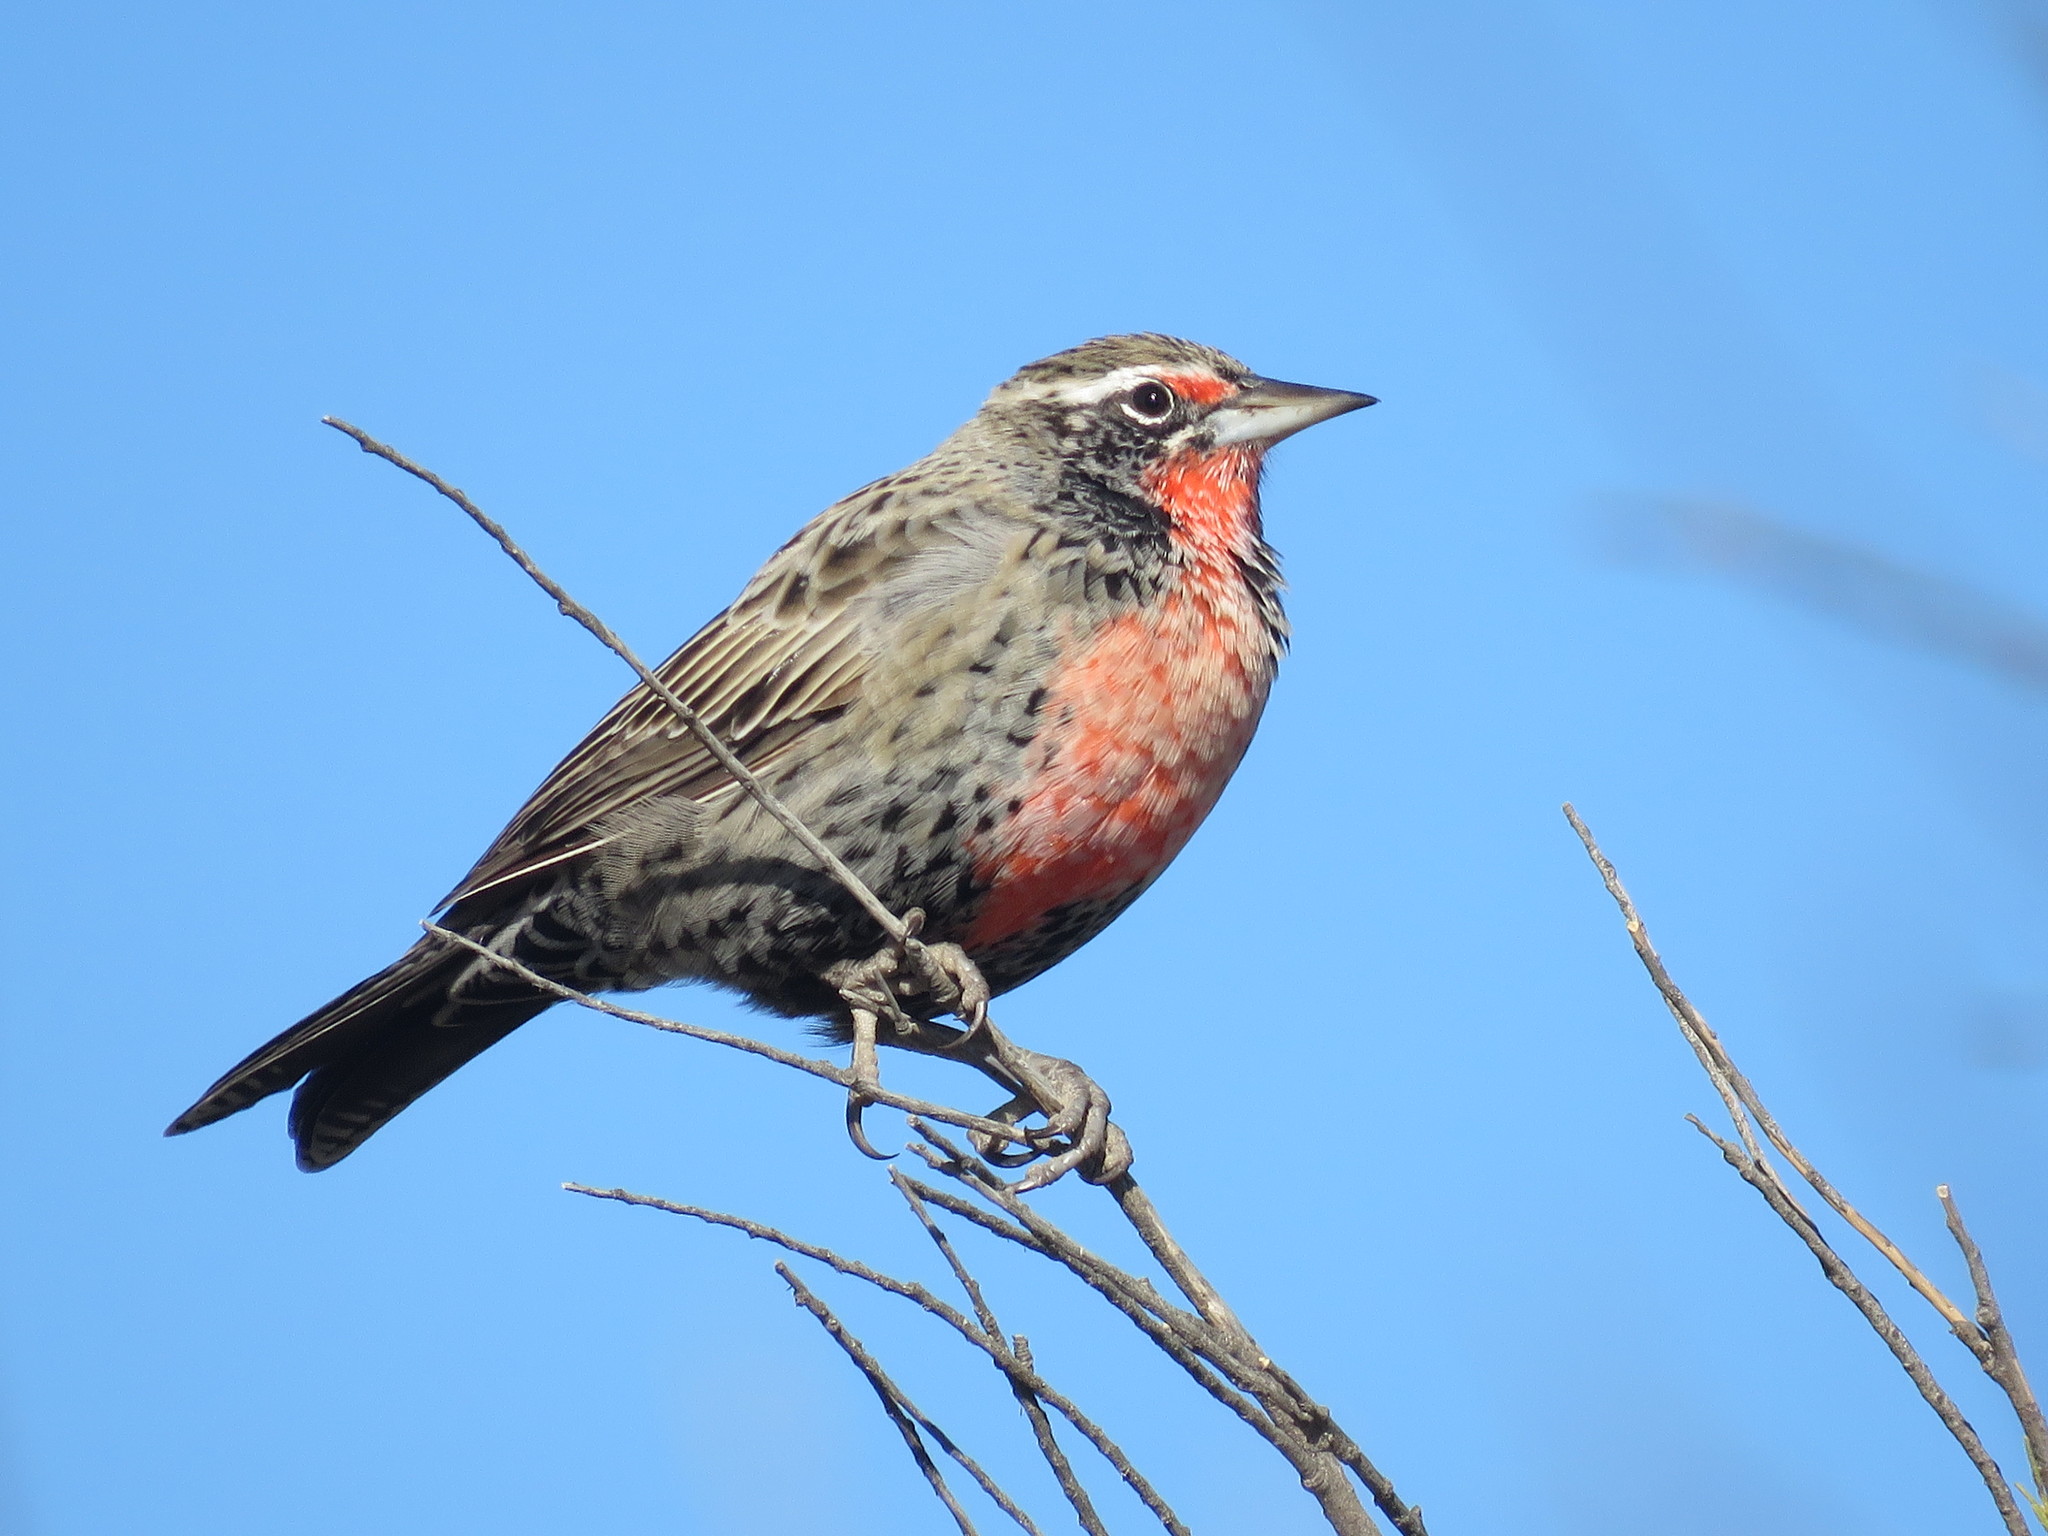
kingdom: Animalia
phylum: Chordata
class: Aves
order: Passeriformes
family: Icteridae
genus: Sturnella
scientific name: Sturnella loyca
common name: Long-tailed meadowlark
